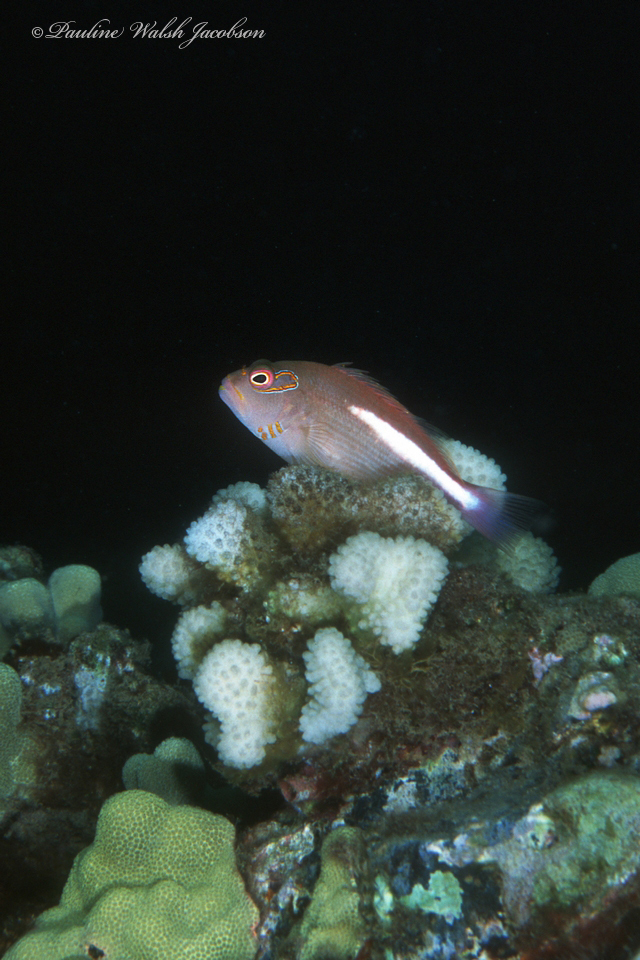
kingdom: Animalia
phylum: Chordata
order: Perciformes
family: Cirrhitidae
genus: Paracirrhites
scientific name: Paracirrhites arcatus
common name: Arc-eye hawkfish
